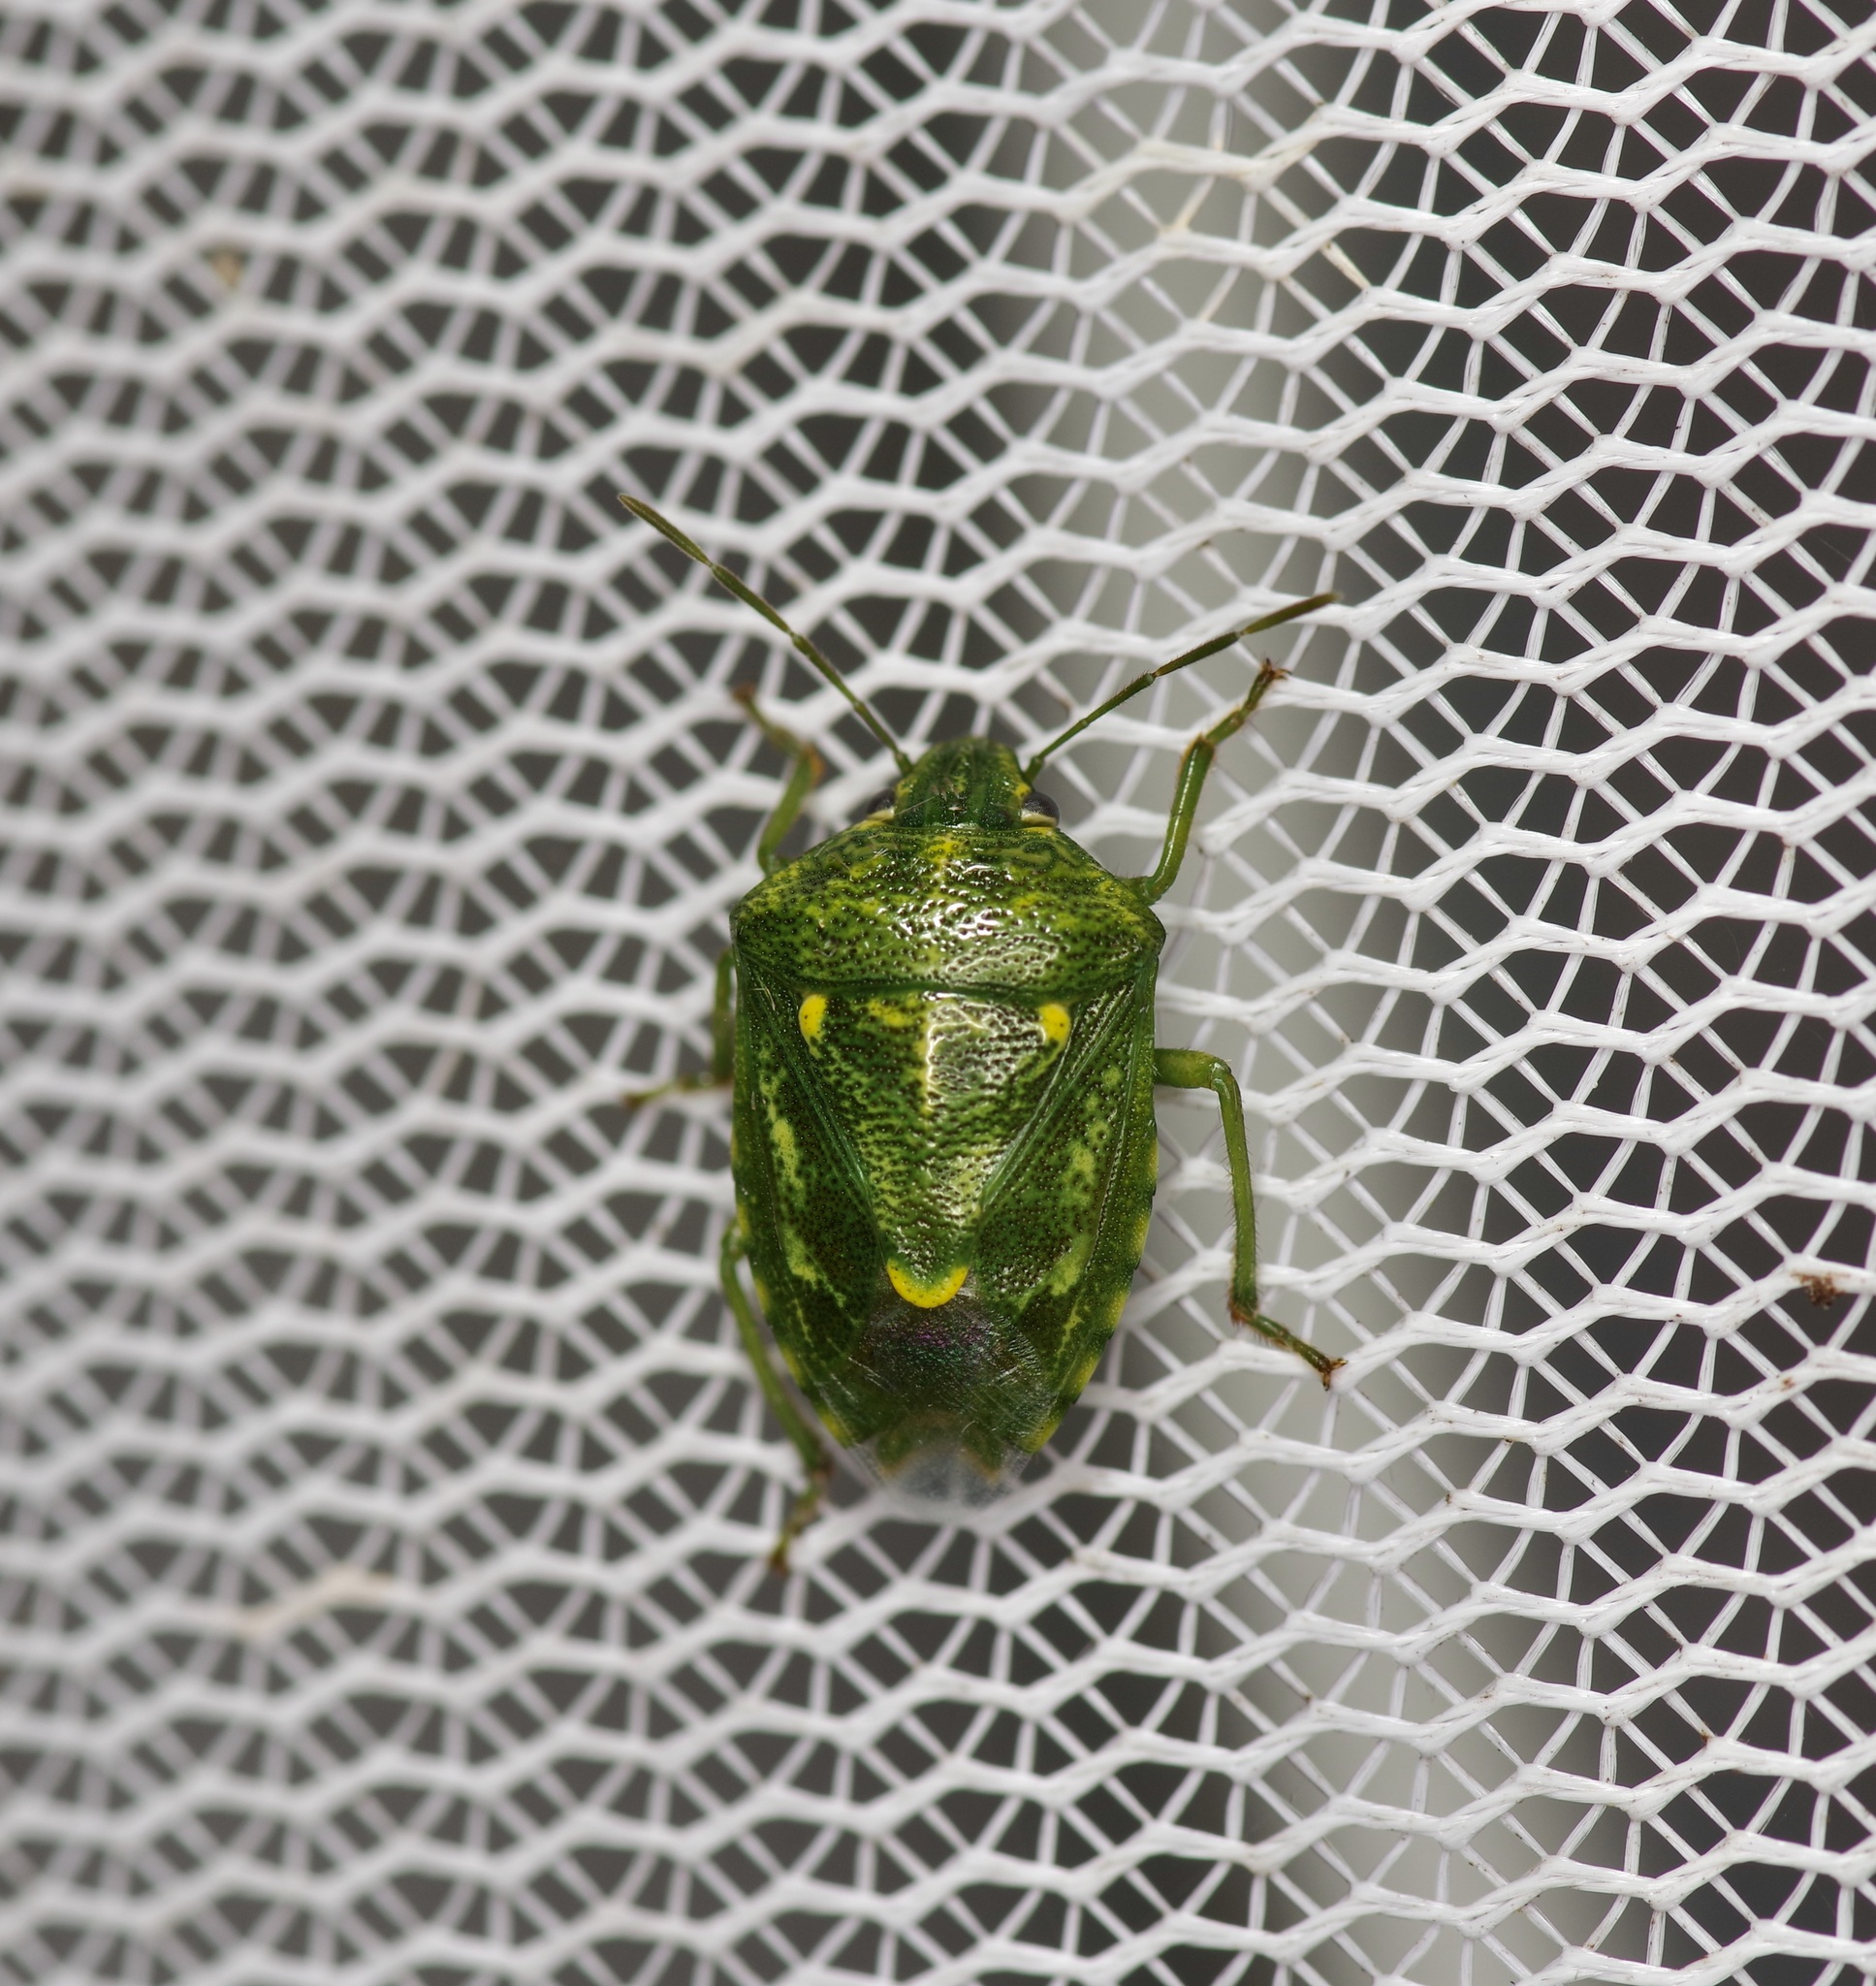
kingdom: Animalia
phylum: Arthropoda
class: Insecta
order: Hemiptera
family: Pentatomidae
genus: Banasa
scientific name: Banasa euchlora
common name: Cedar berry bug
